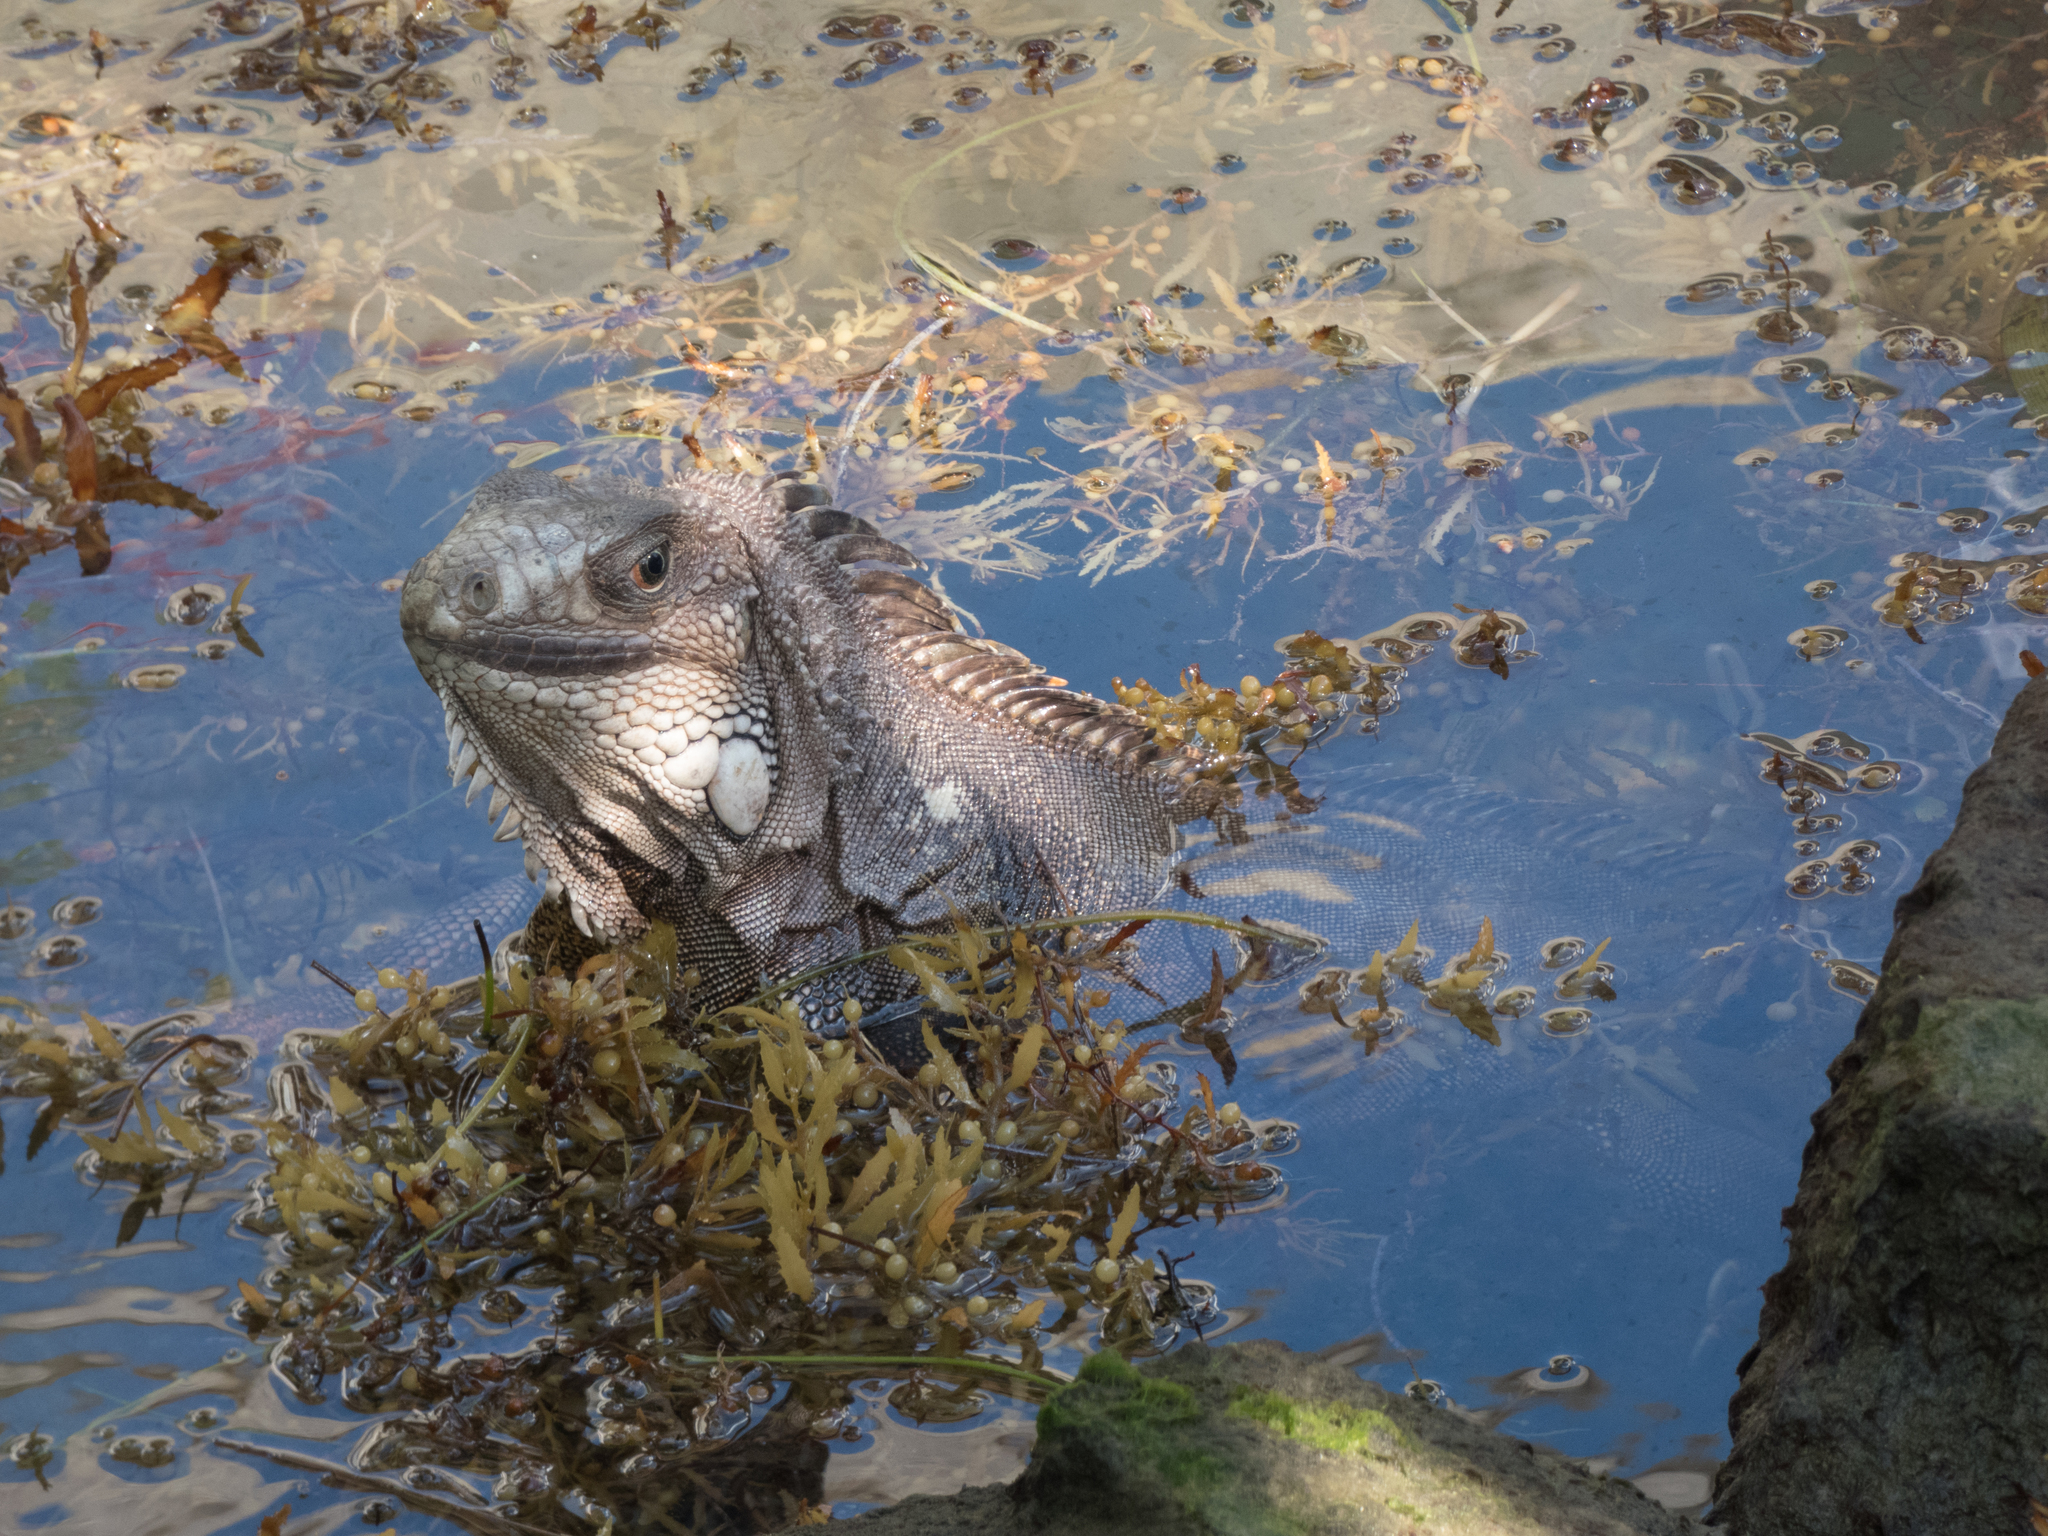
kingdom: Animalia
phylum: Chordata
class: Squamata
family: Iguanidae
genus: Iguana
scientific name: Iguana iguana
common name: Green iguana
